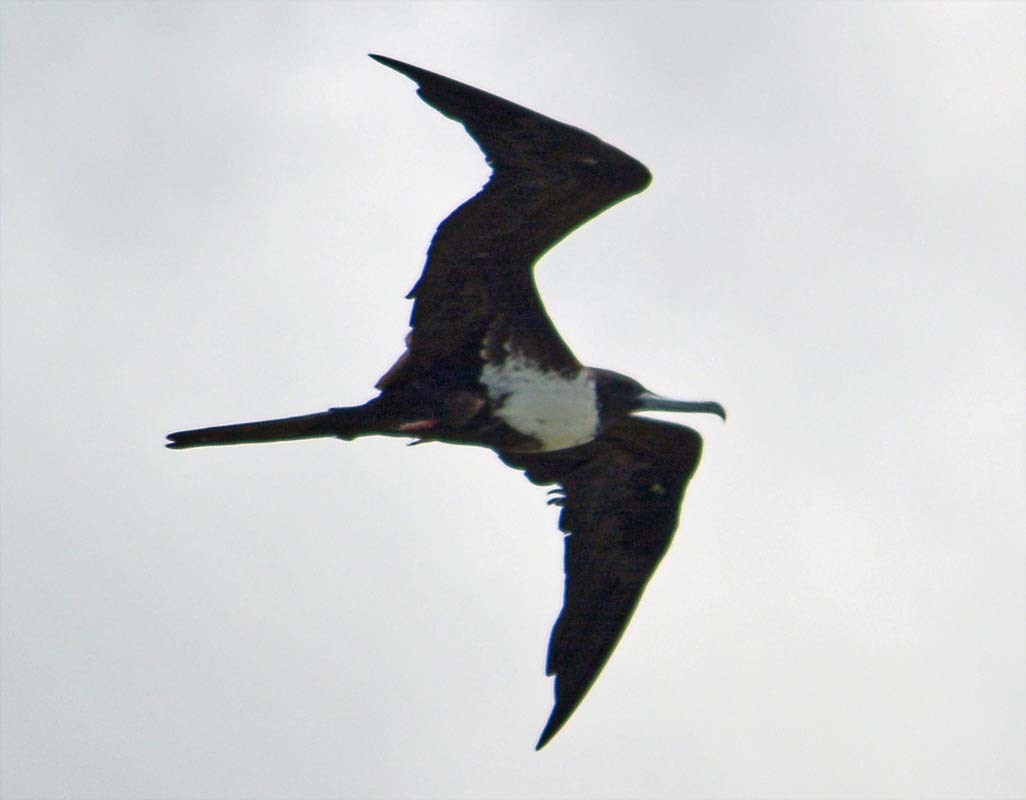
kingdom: Animalia
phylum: Chordata
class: Aves
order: Suliformes
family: Fregatidae
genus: Fregata
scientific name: Fregata magnificens
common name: Magnificent frigatebird
